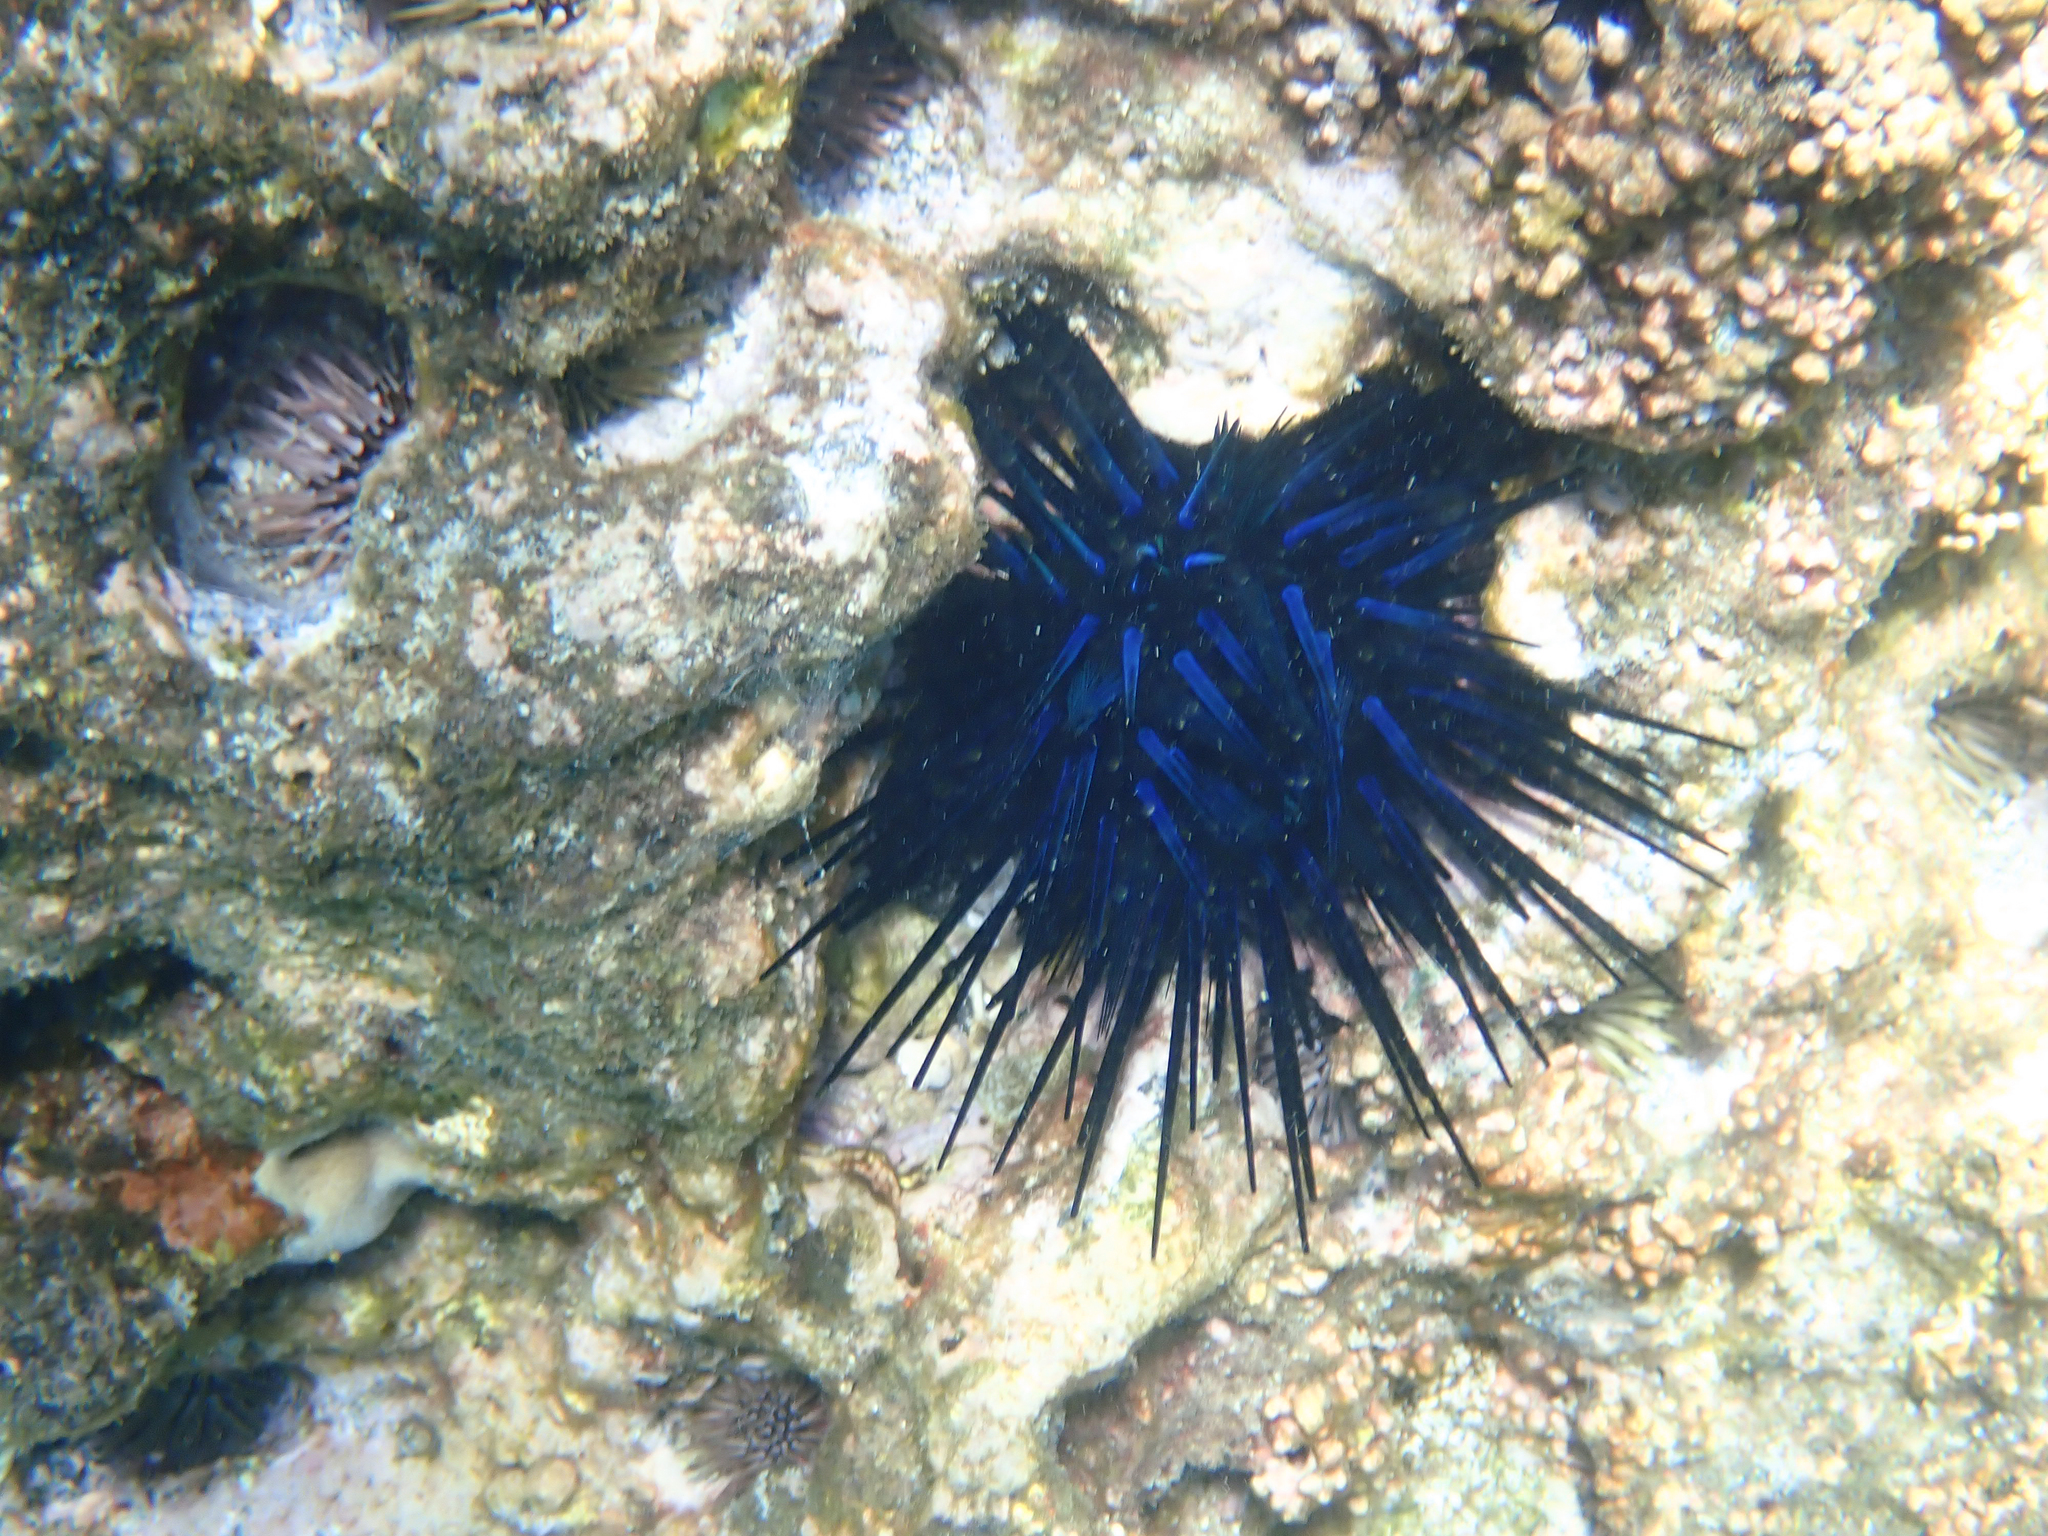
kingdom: Animalia
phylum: Echinodermata
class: Echinoidea
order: Diadematoida
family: Diadematidae
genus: Echinothrix
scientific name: Echinothrix diadema
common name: Schwarzer diademseeigel
